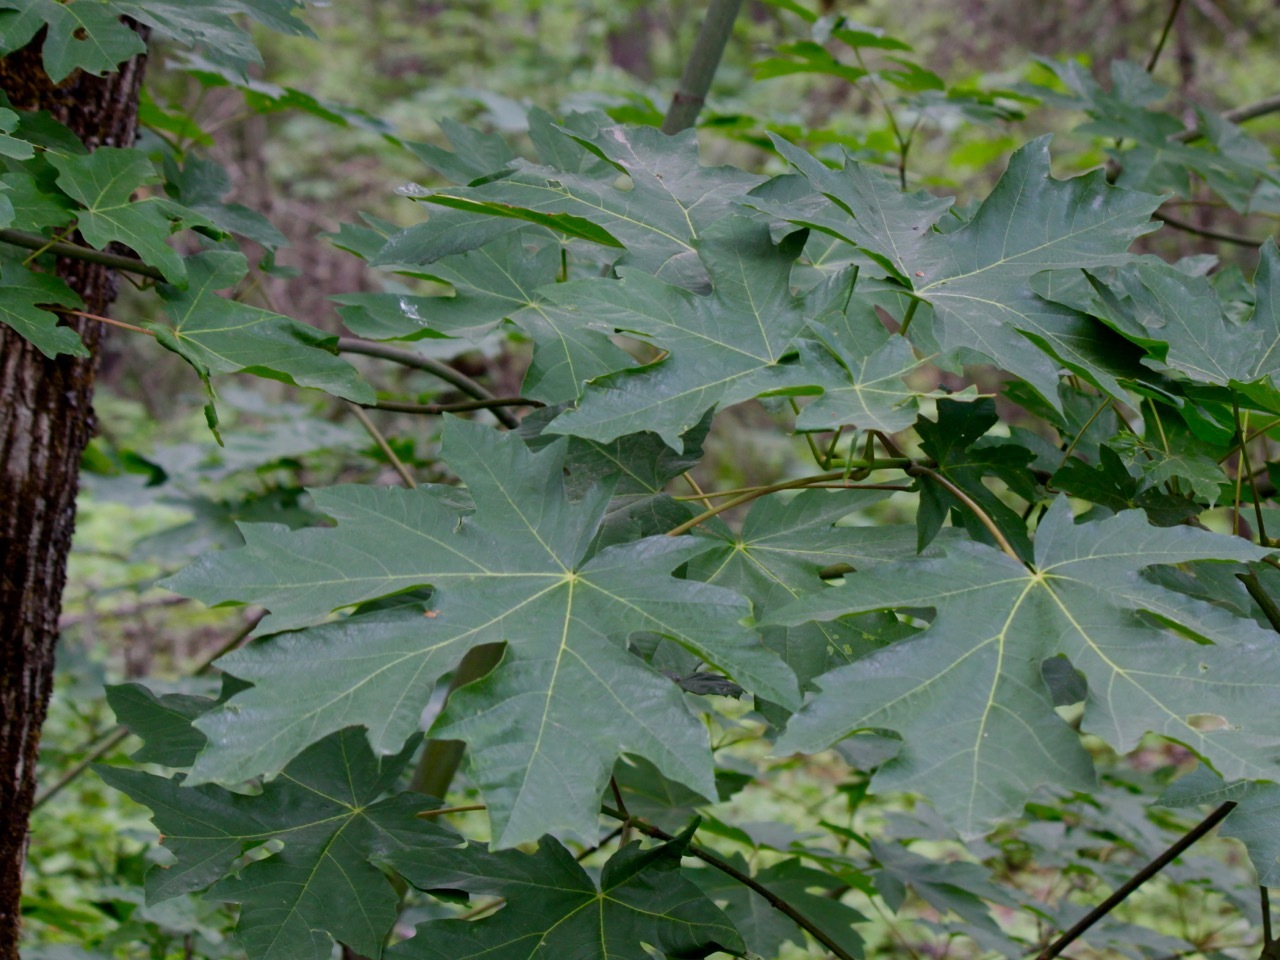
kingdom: Plantae
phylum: Tracheophyta
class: Magnoliopsida
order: Sapindales
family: Sapindaceae
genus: Acer
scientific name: Acer macrophyllum
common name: Oregon maple
